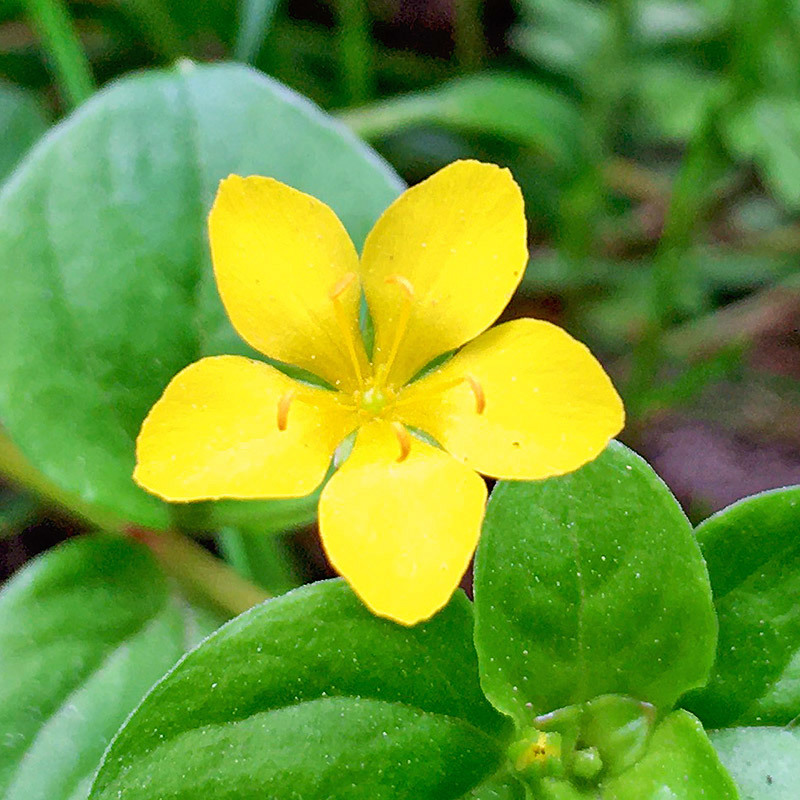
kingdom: Plantae
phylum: Tracheophyta
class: Magnoliopsida
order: Ericales
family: Primulaceae
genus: Lysimachia
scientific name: Lysimachia nemorum
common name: Yellow pimpernel
